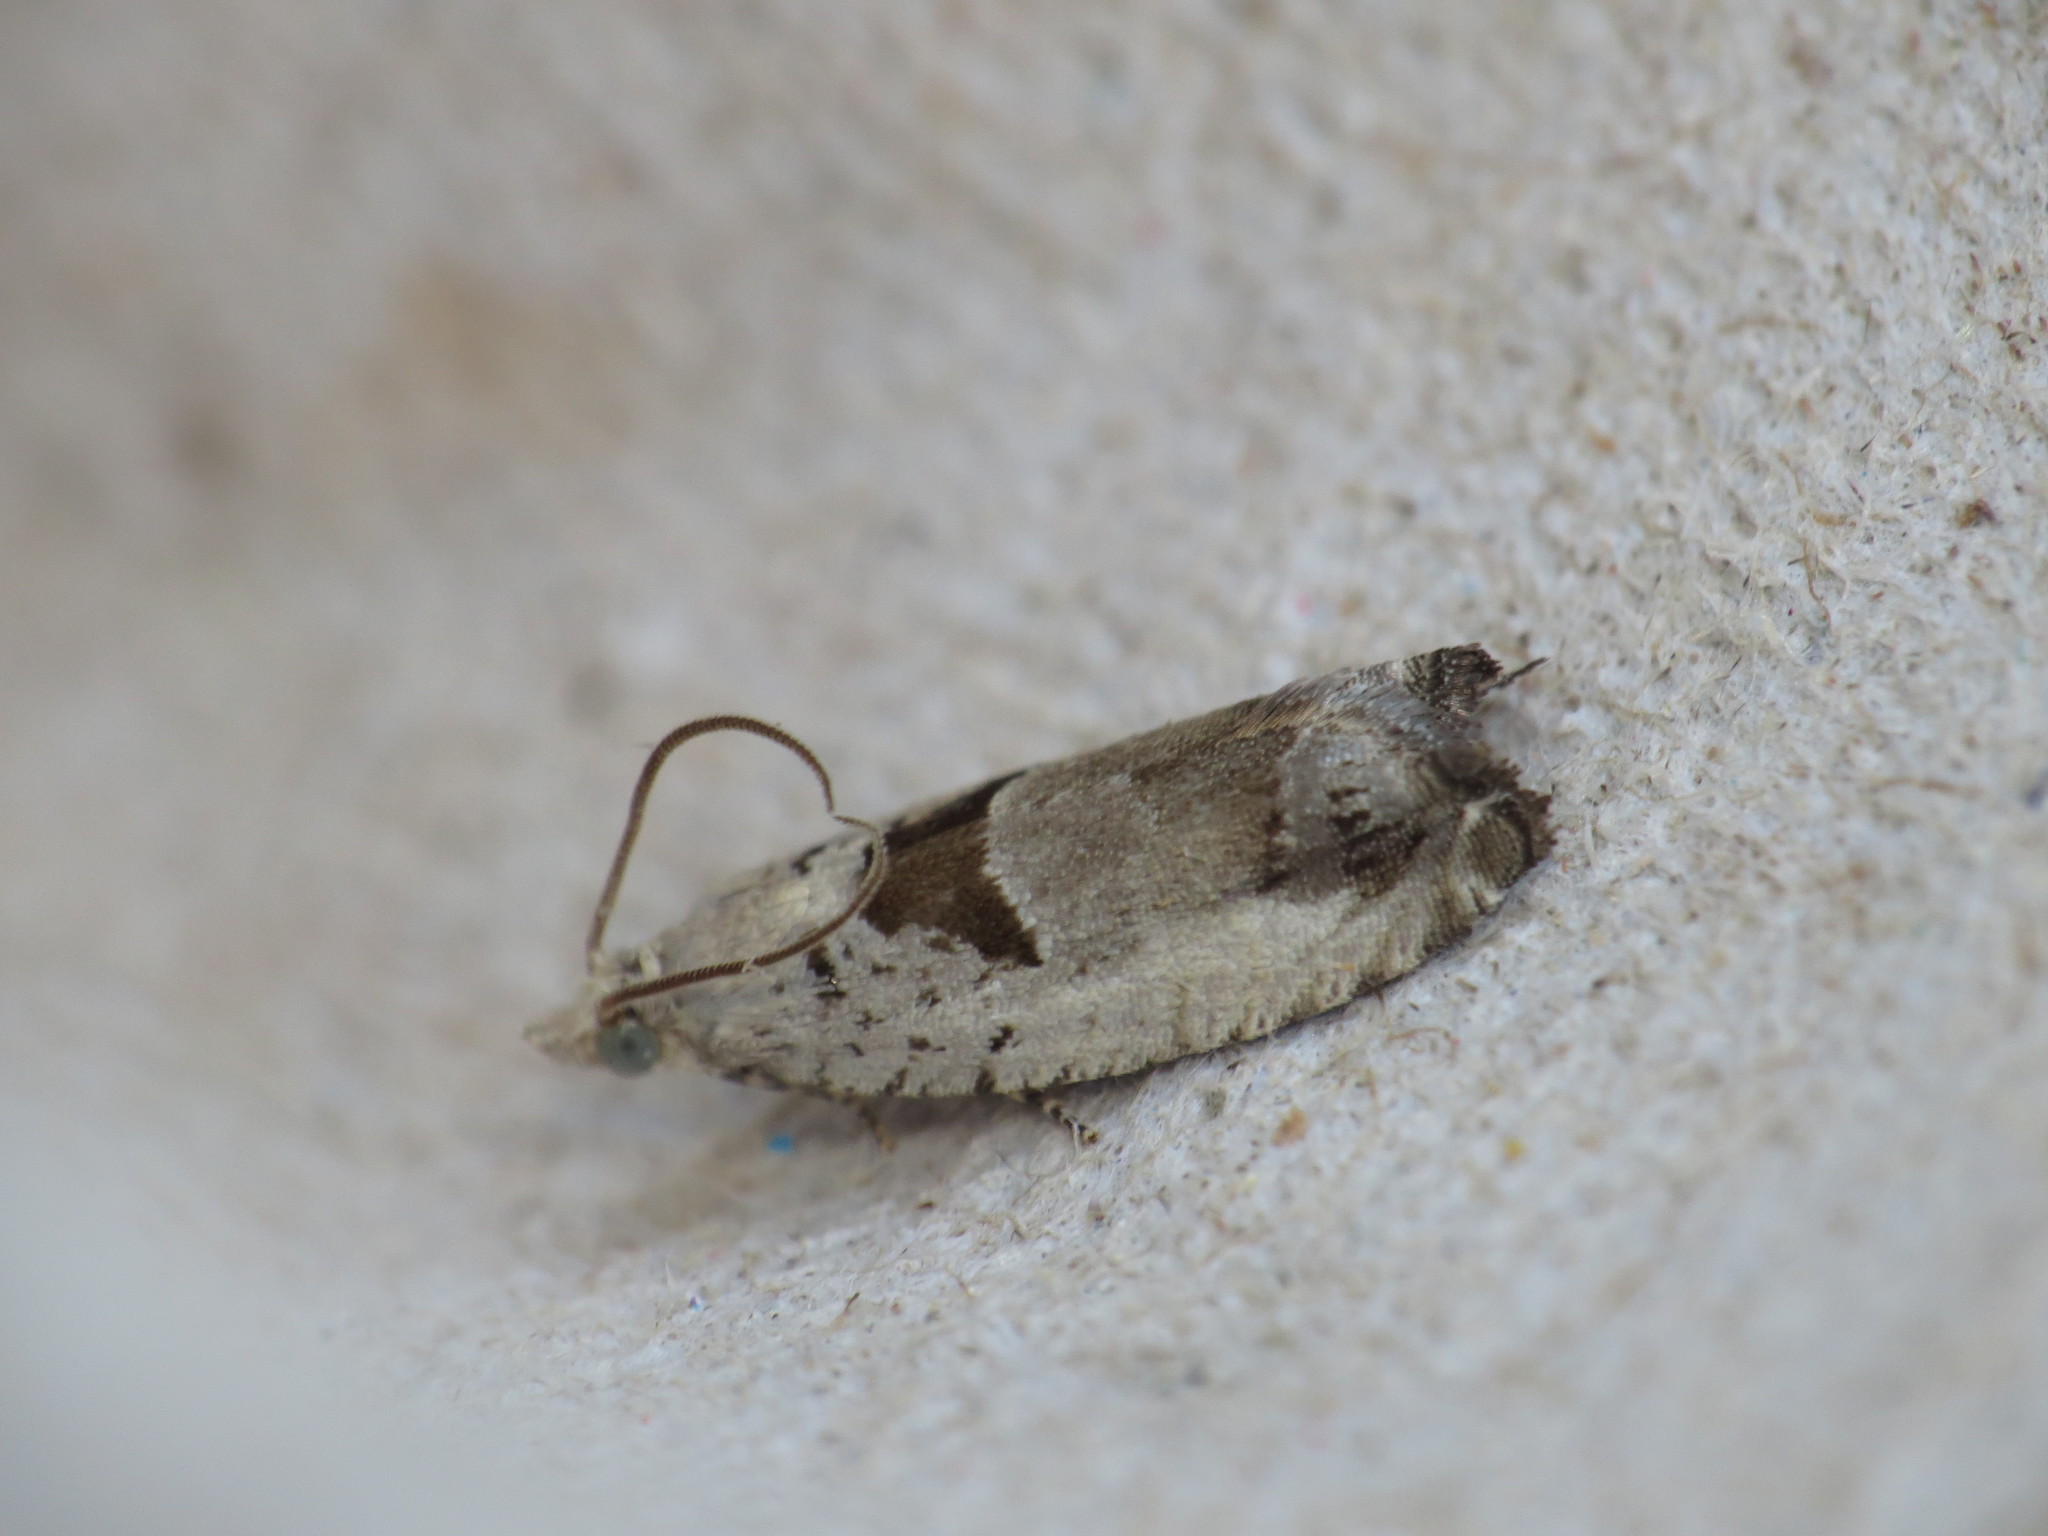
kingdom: Animalia
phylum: Arthropoda
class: Insecta
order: Lepidoptera
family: Tortricidae
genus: Epinotia
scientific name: Epinotia ramella
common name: Small birch bell
